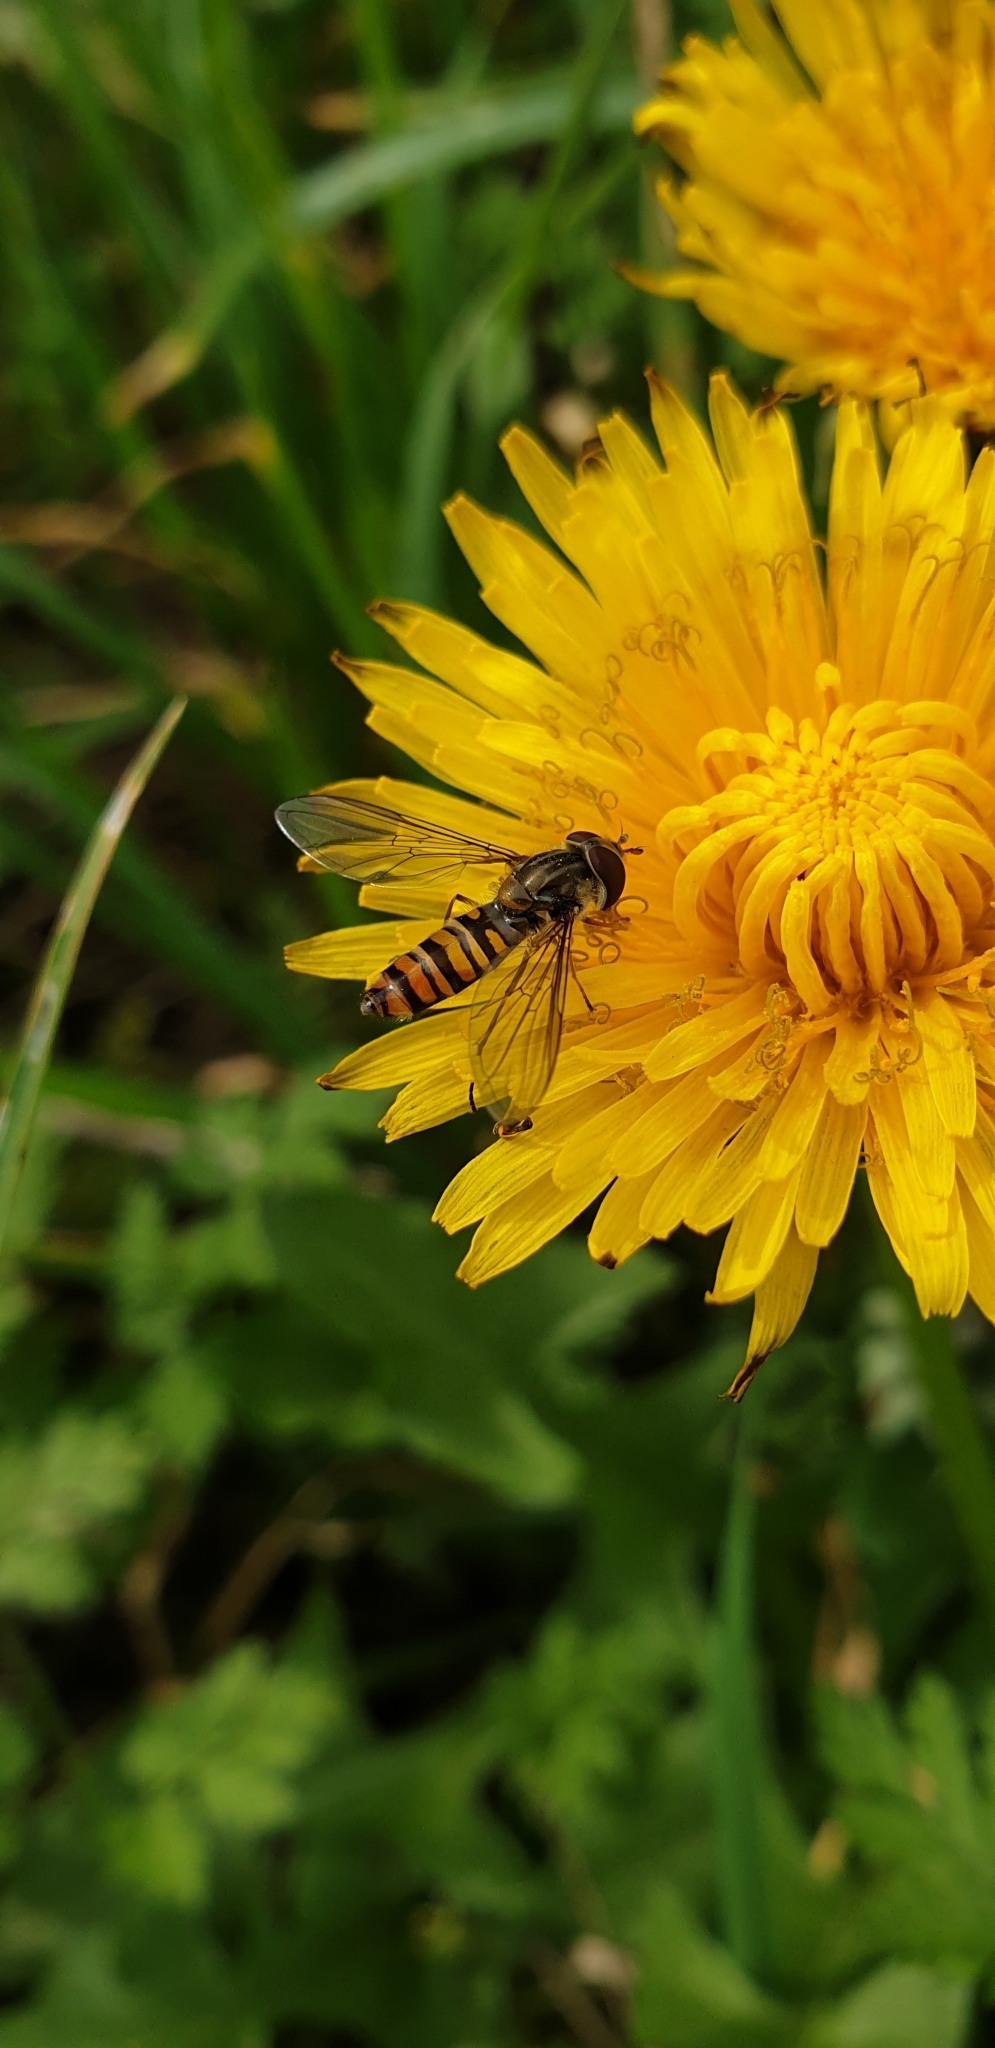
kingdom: Animalia
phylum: Arthropoda
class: Insecta
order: Diptera
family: Syrphidae
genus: Episyrphus
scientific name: Episyrphus balteatus
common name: Marmalade hoverfly
